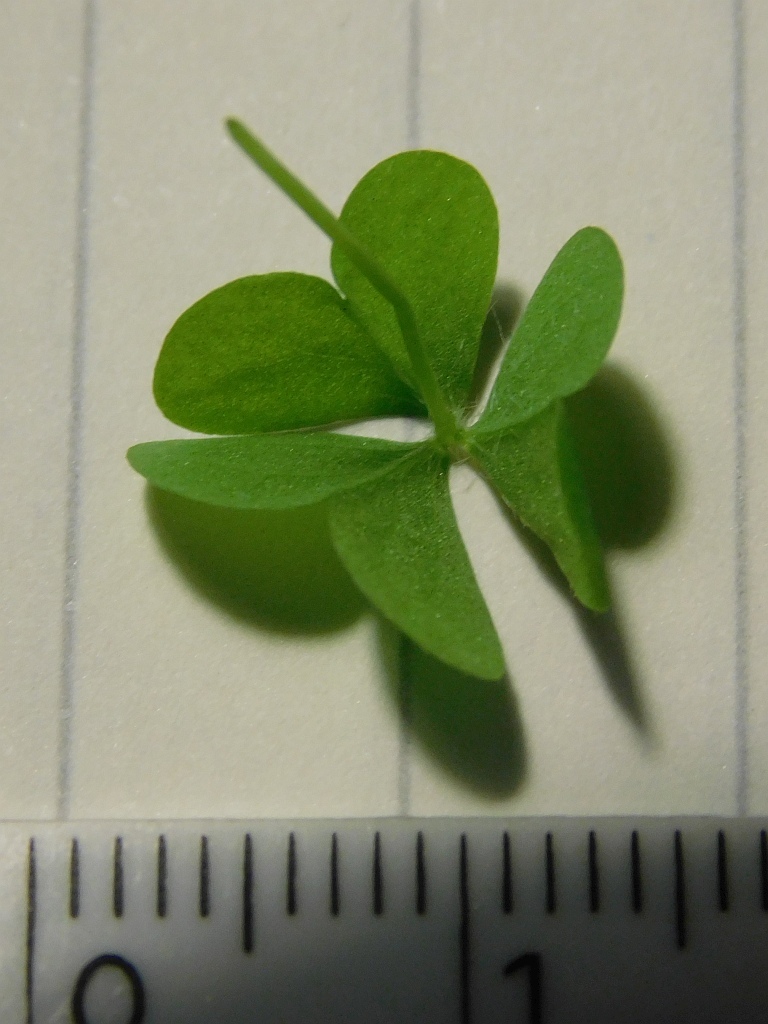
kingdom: Plantae
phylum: Tracheophyta
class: Magnoliopsida
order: Oxalidales
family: Oxalidaceae
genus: Oxalis
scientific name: Oxalis caprina
